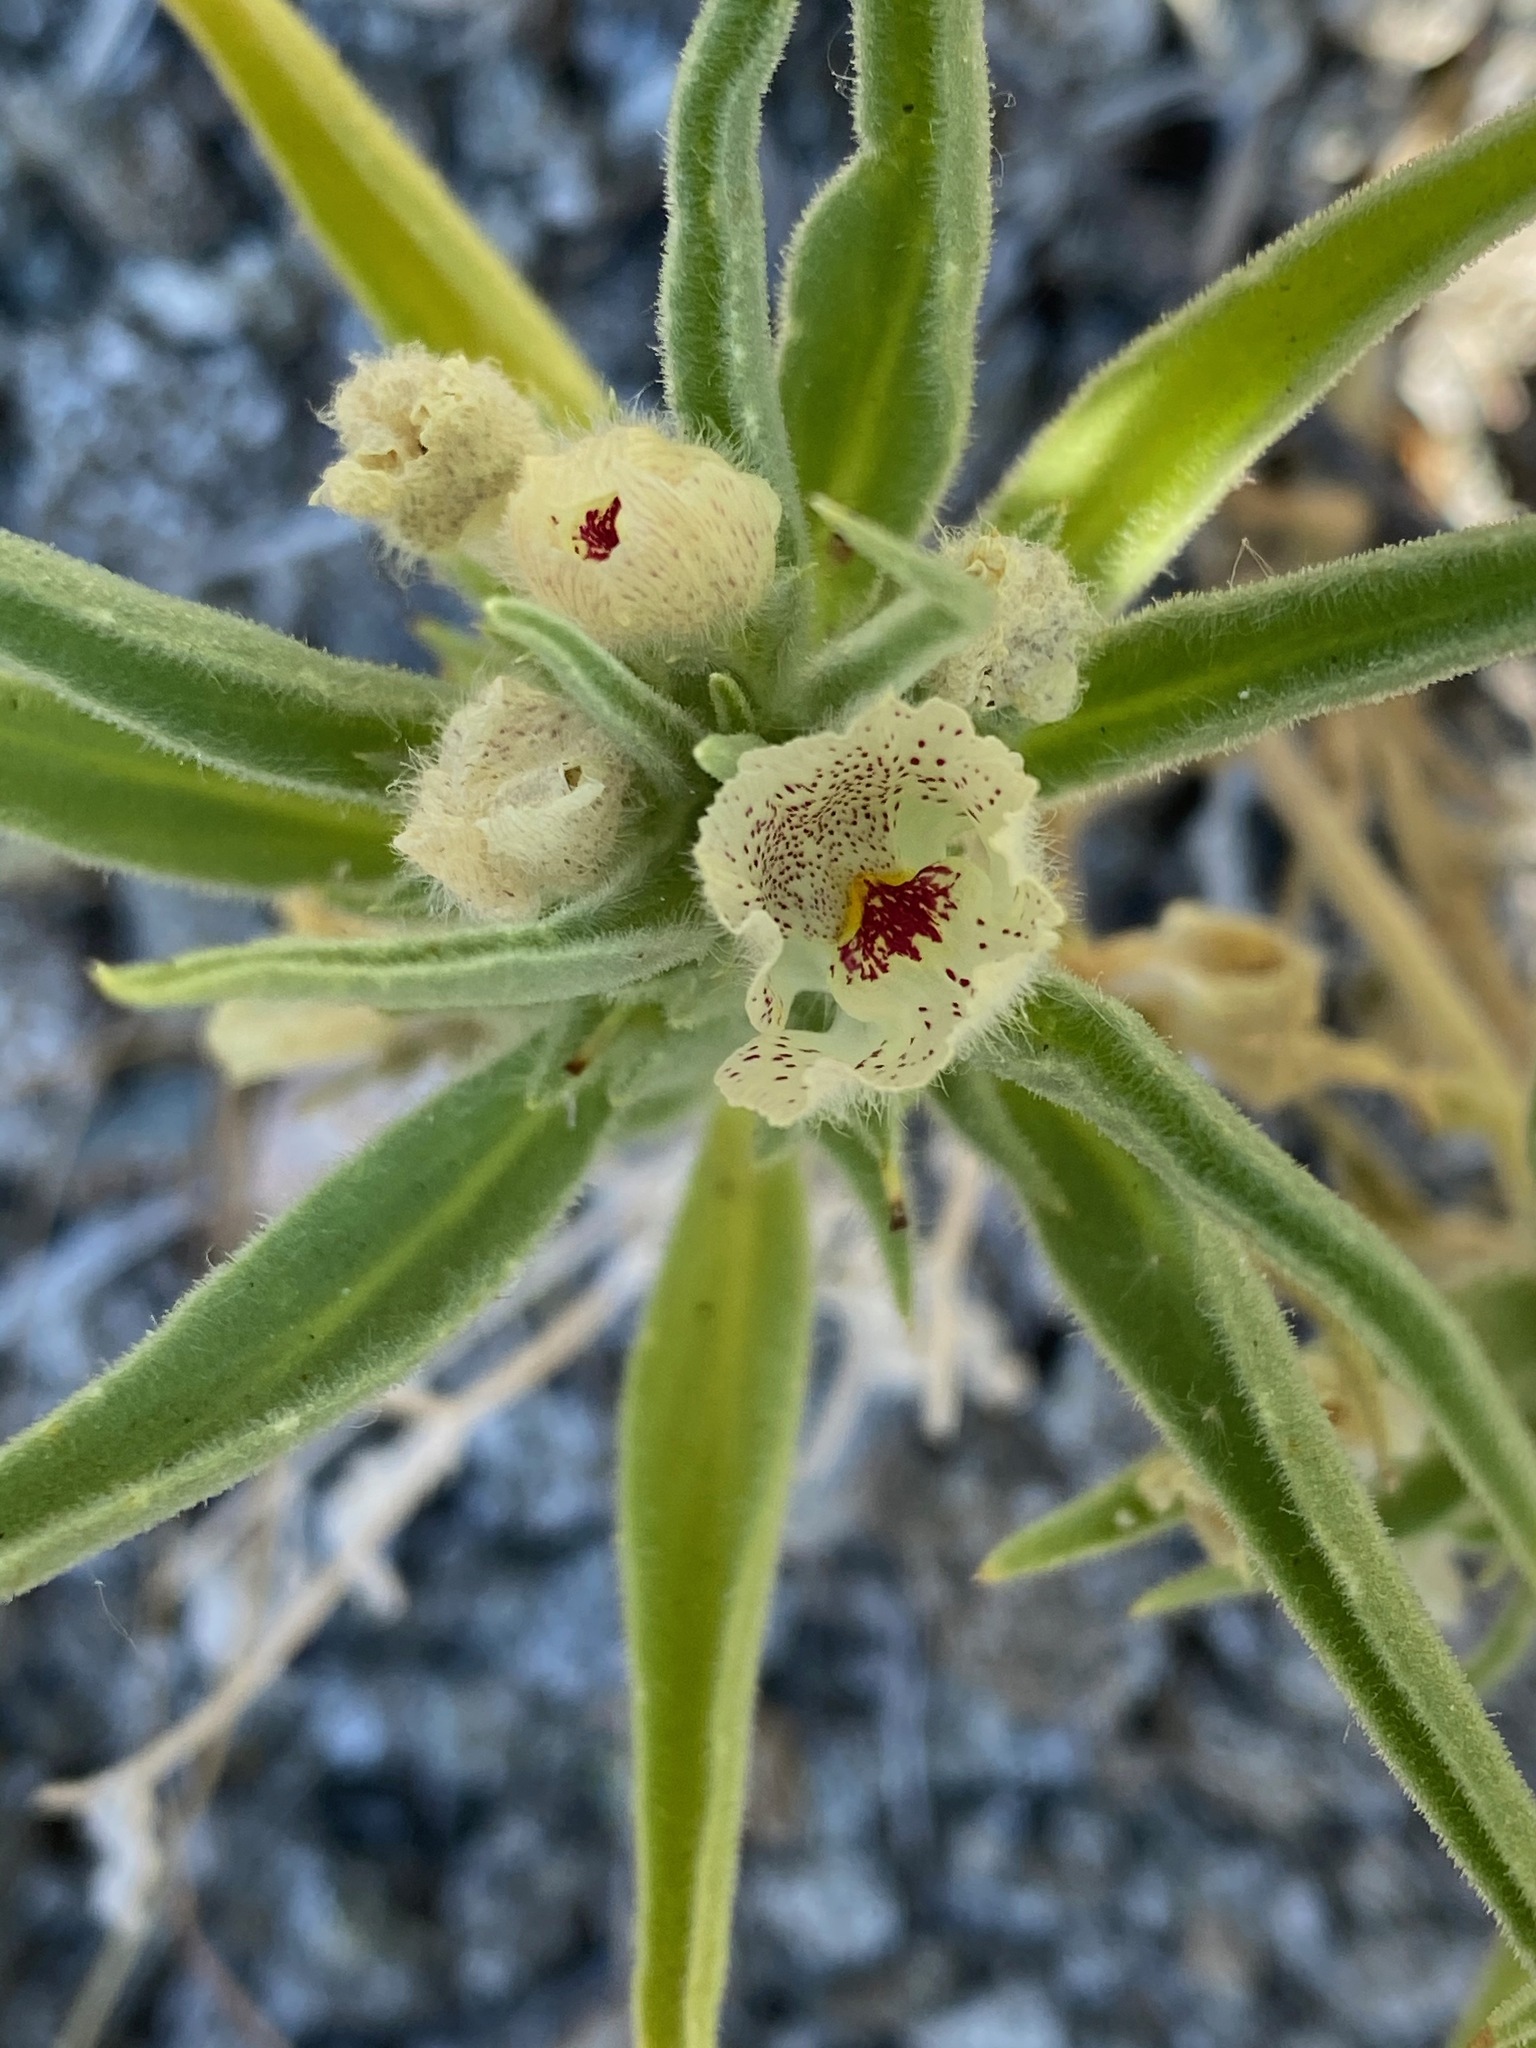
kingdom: Plantae
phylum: Tracheophyta
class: Magnoliopsida
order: Lamiales
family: Plantaginaceae
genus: Mohavea
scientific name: Mohavea confertiflora
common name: Ghost flower
